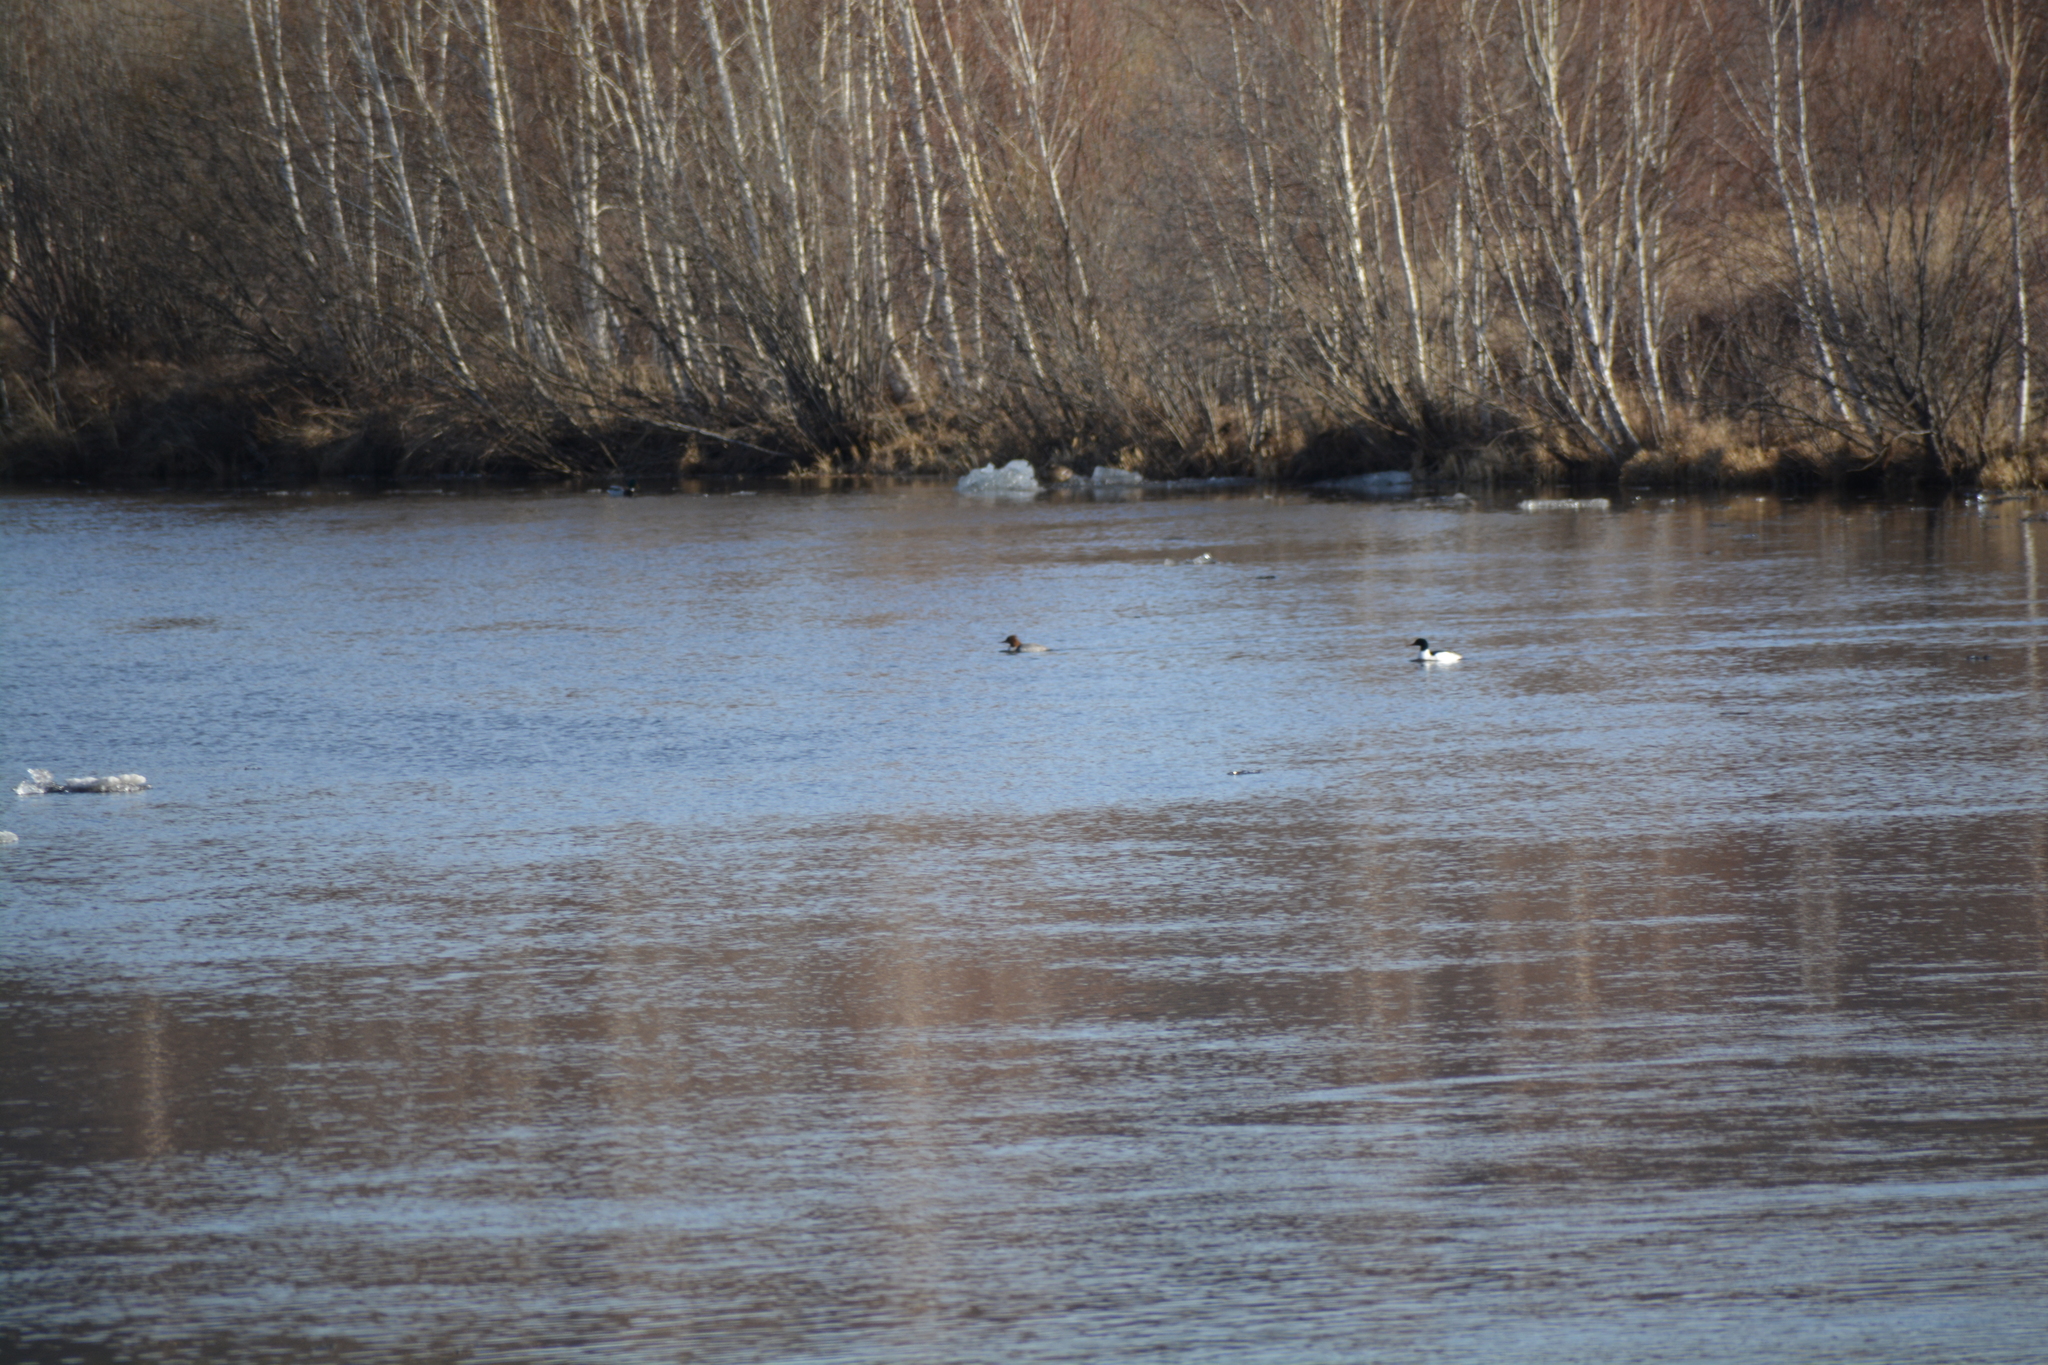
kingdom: Animalia
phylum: Chordata
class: Aves
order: Anseriformes
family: Anatidae
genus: Mergus
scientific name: Mergus merganser
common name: Common merganser
